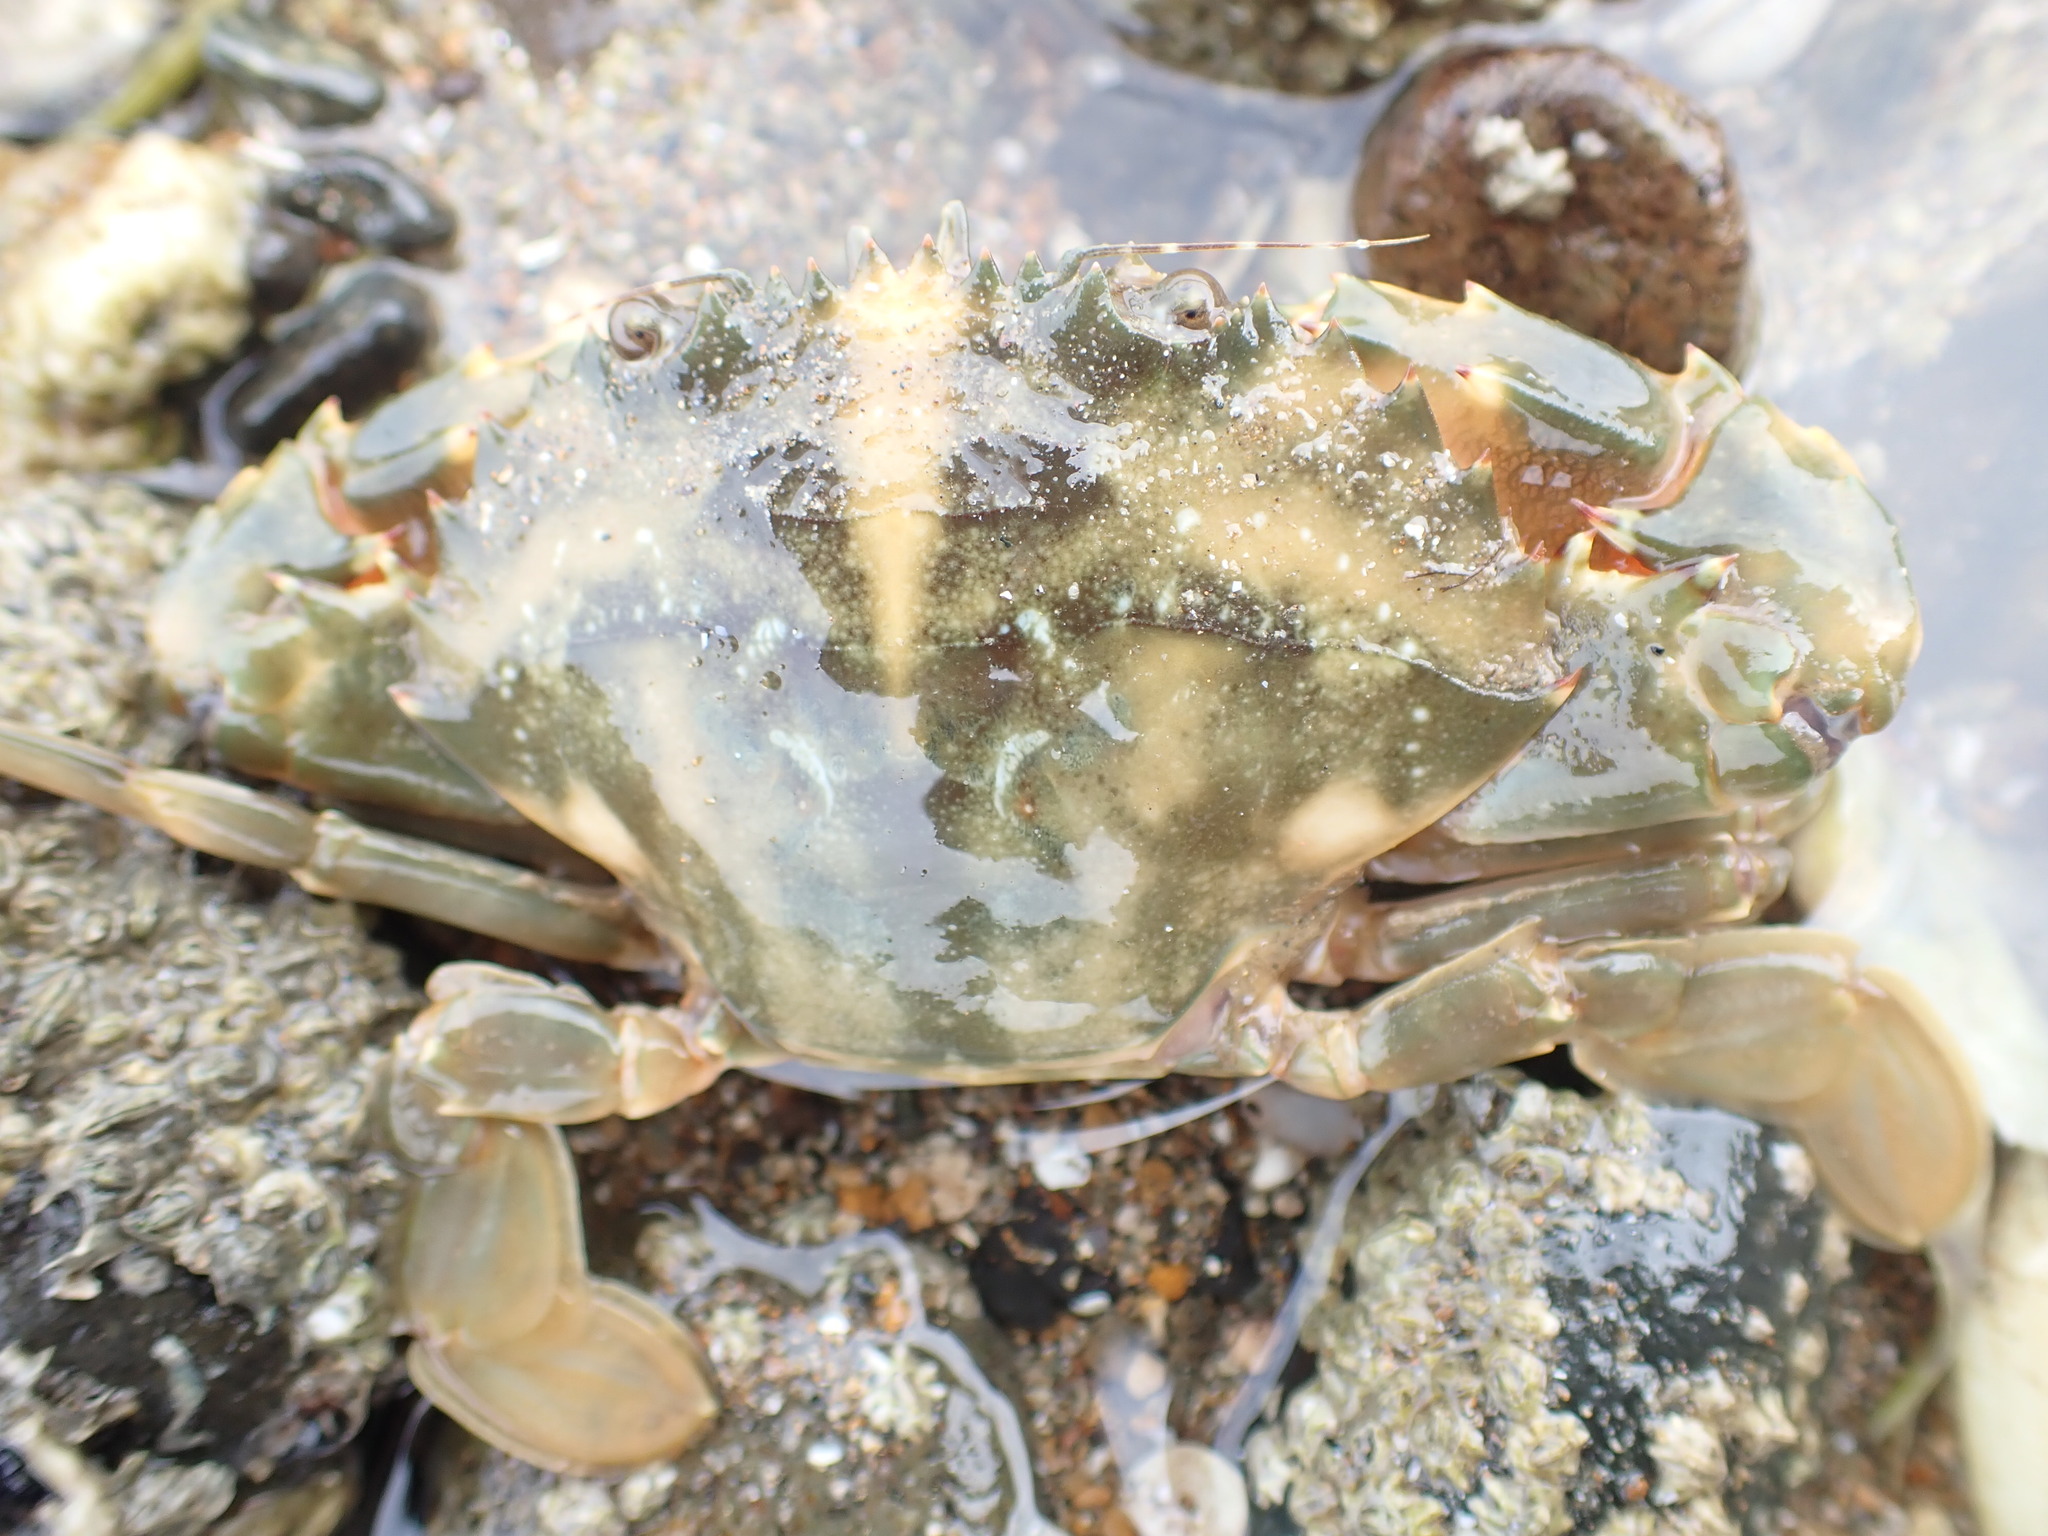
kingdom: Animalia
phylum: Arthropoda
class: Malacostraca
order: Decapoda
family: Portunidae
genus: Charybdis
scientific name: Charybdis japonica
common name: Asian paddle crab
